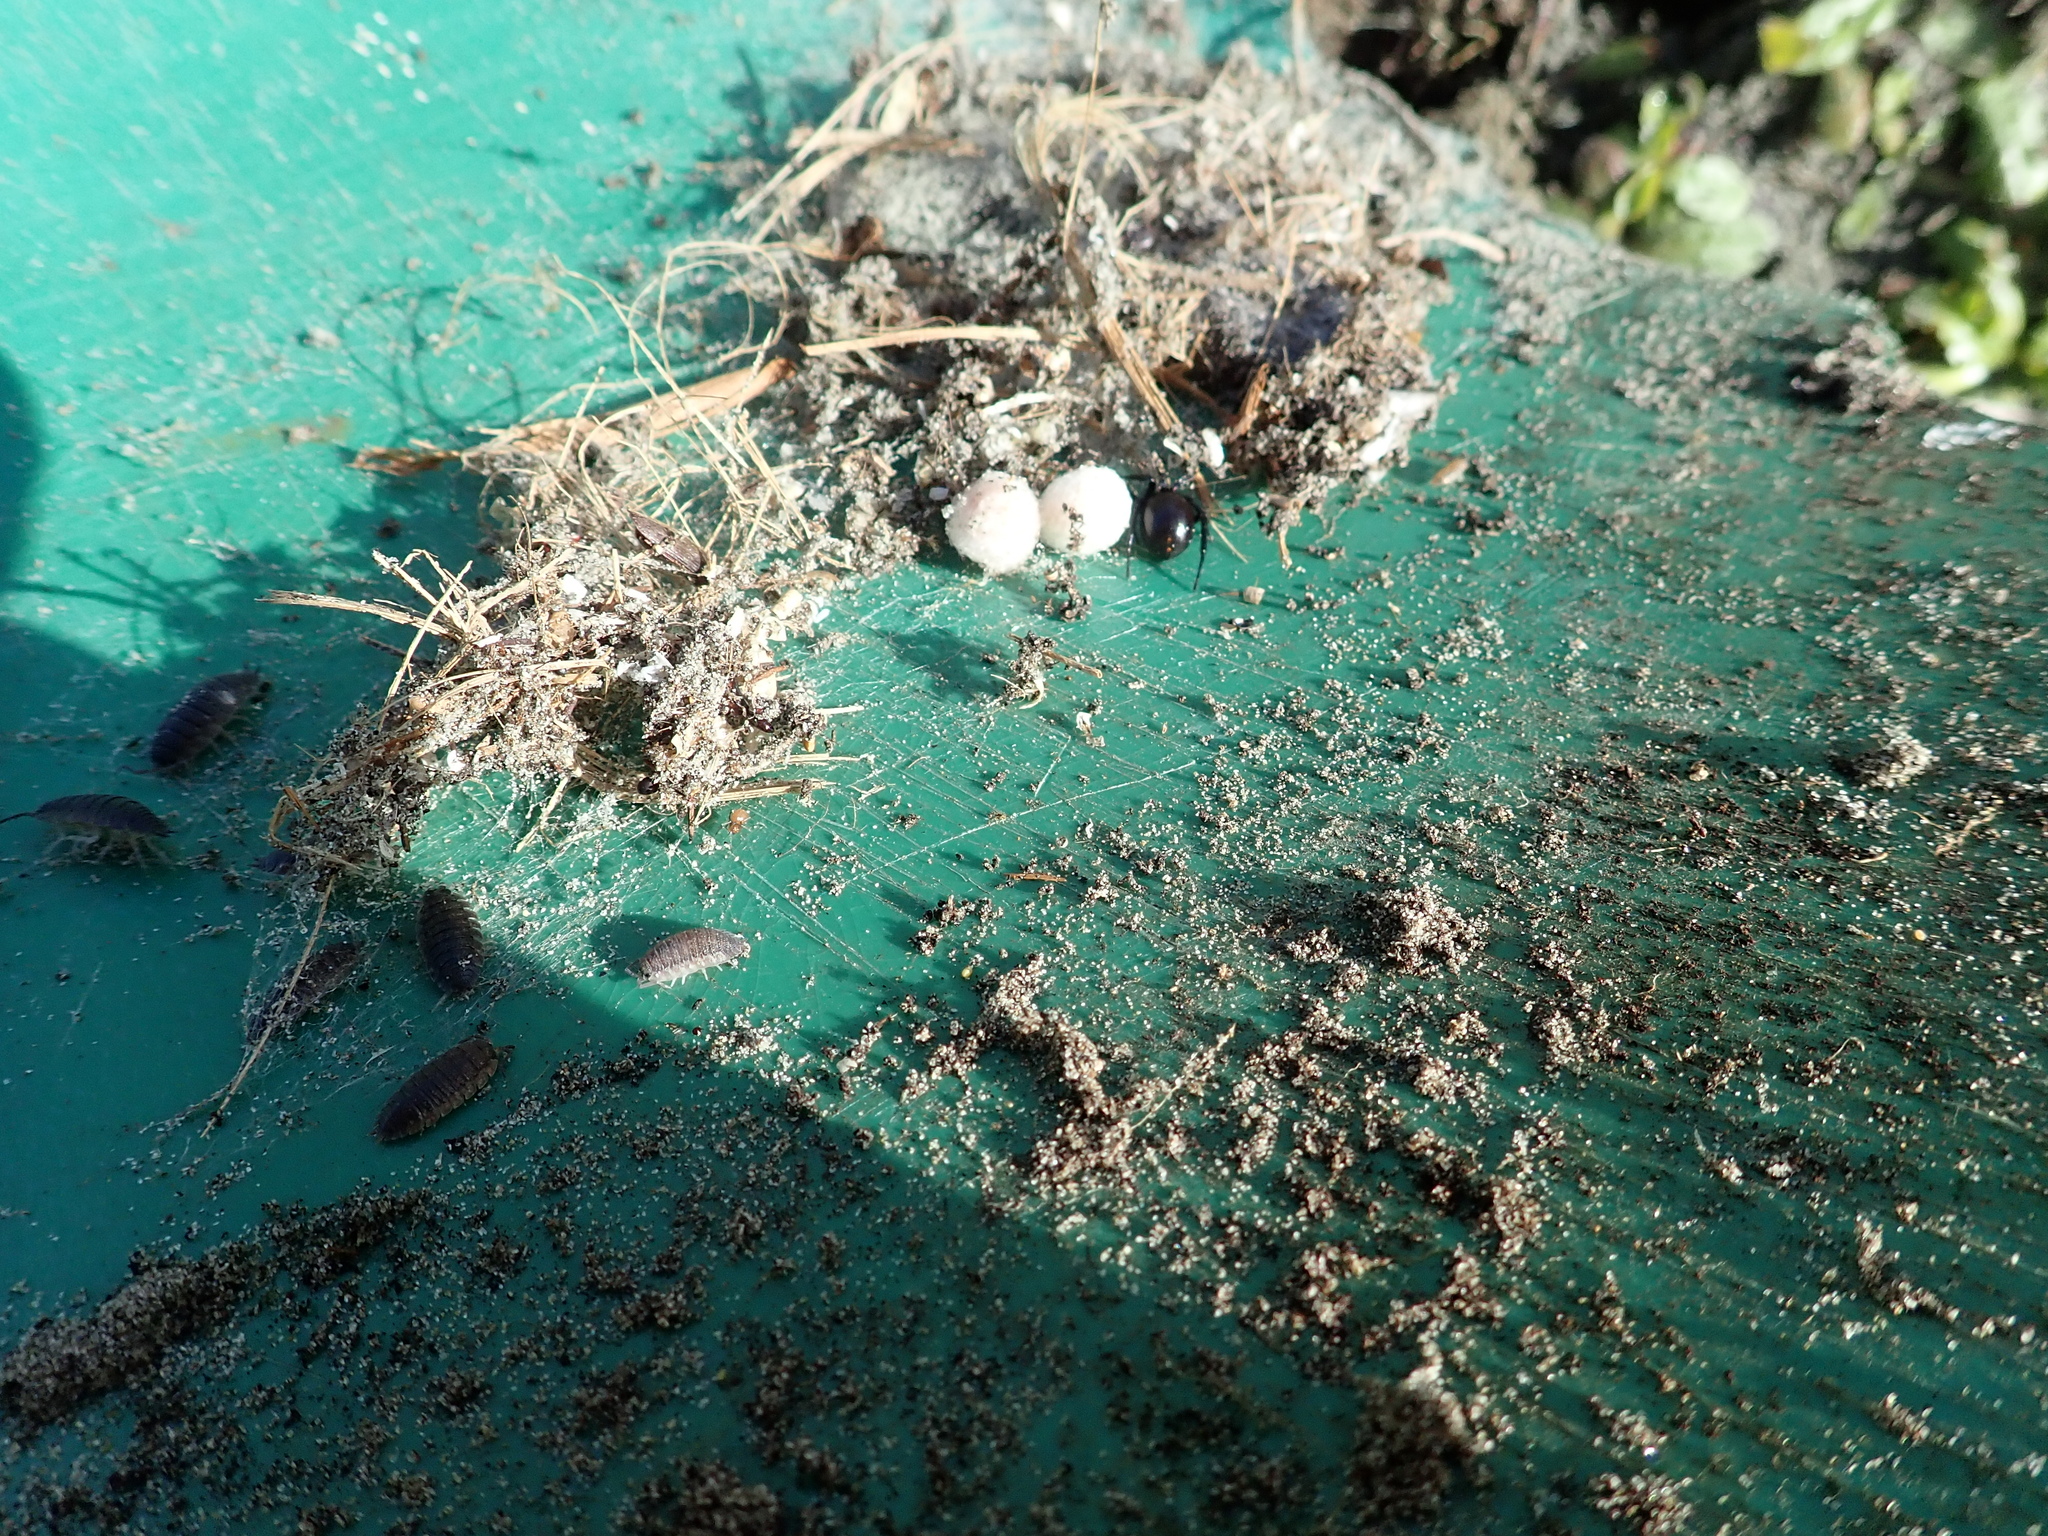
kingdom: Animalia
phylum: Arthropoda
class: Arachnida
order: Araneae
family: Theridiidae
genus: Steatoda
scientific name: Steatoda capensis
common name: Cobweb weaver
